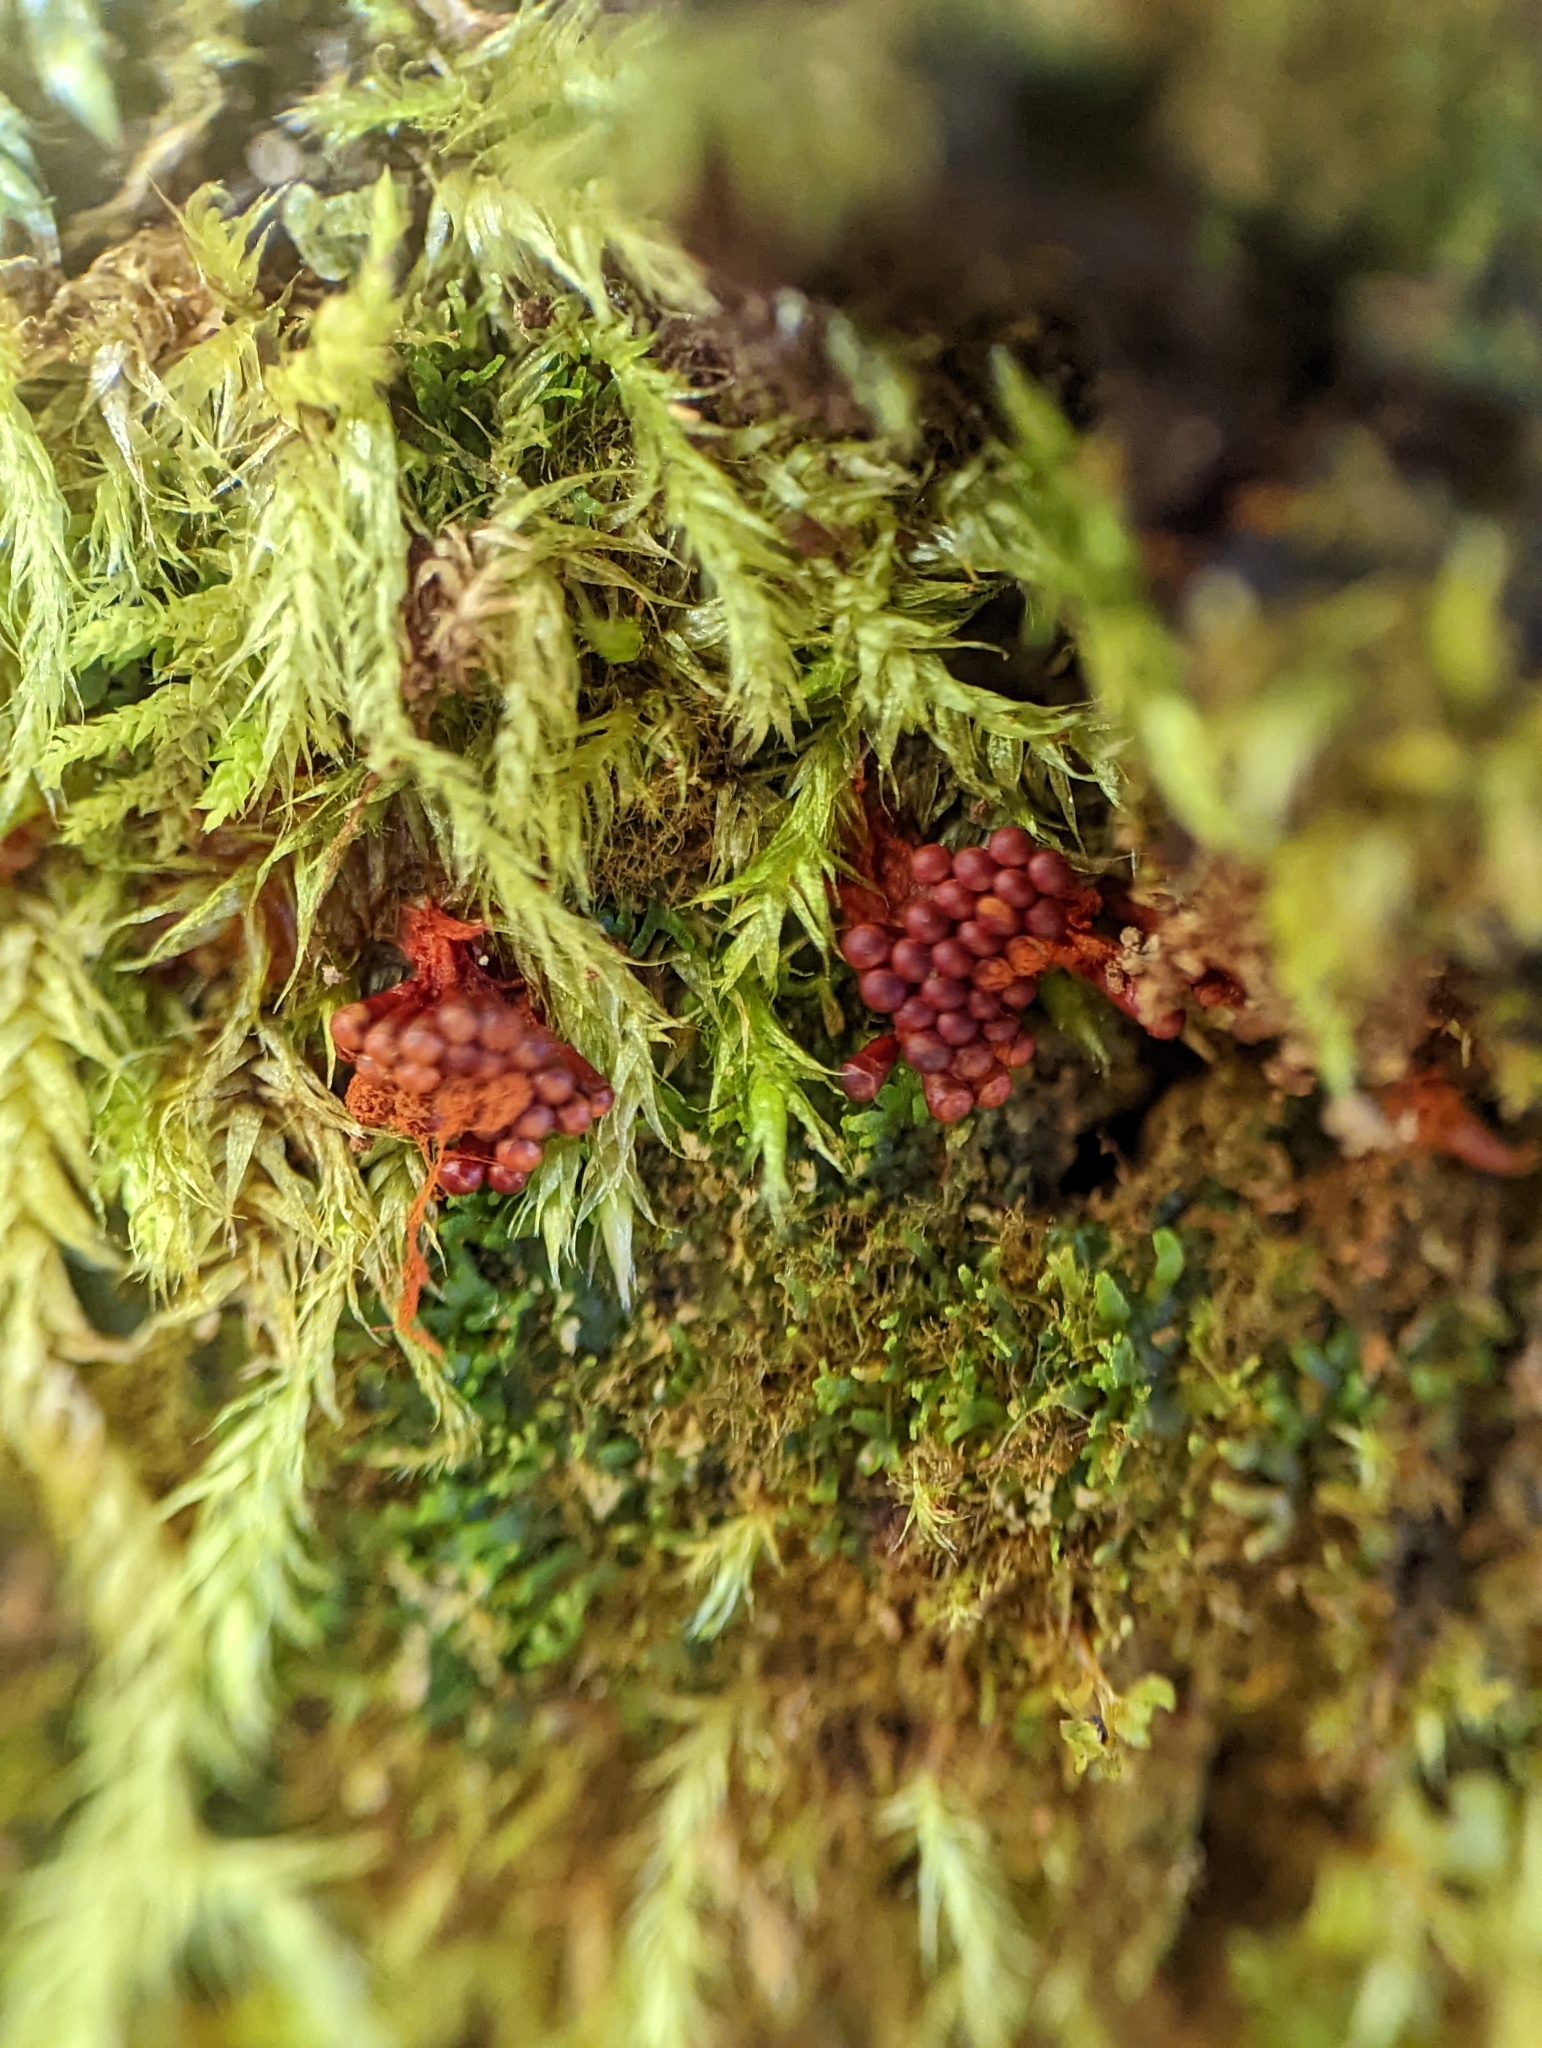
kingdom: Protozoa
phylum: Mycetozoa
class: Myxomycetes
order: Trichiales
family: Trichiaceae
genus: Metatrichia
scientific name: Metatrichia vesparia
